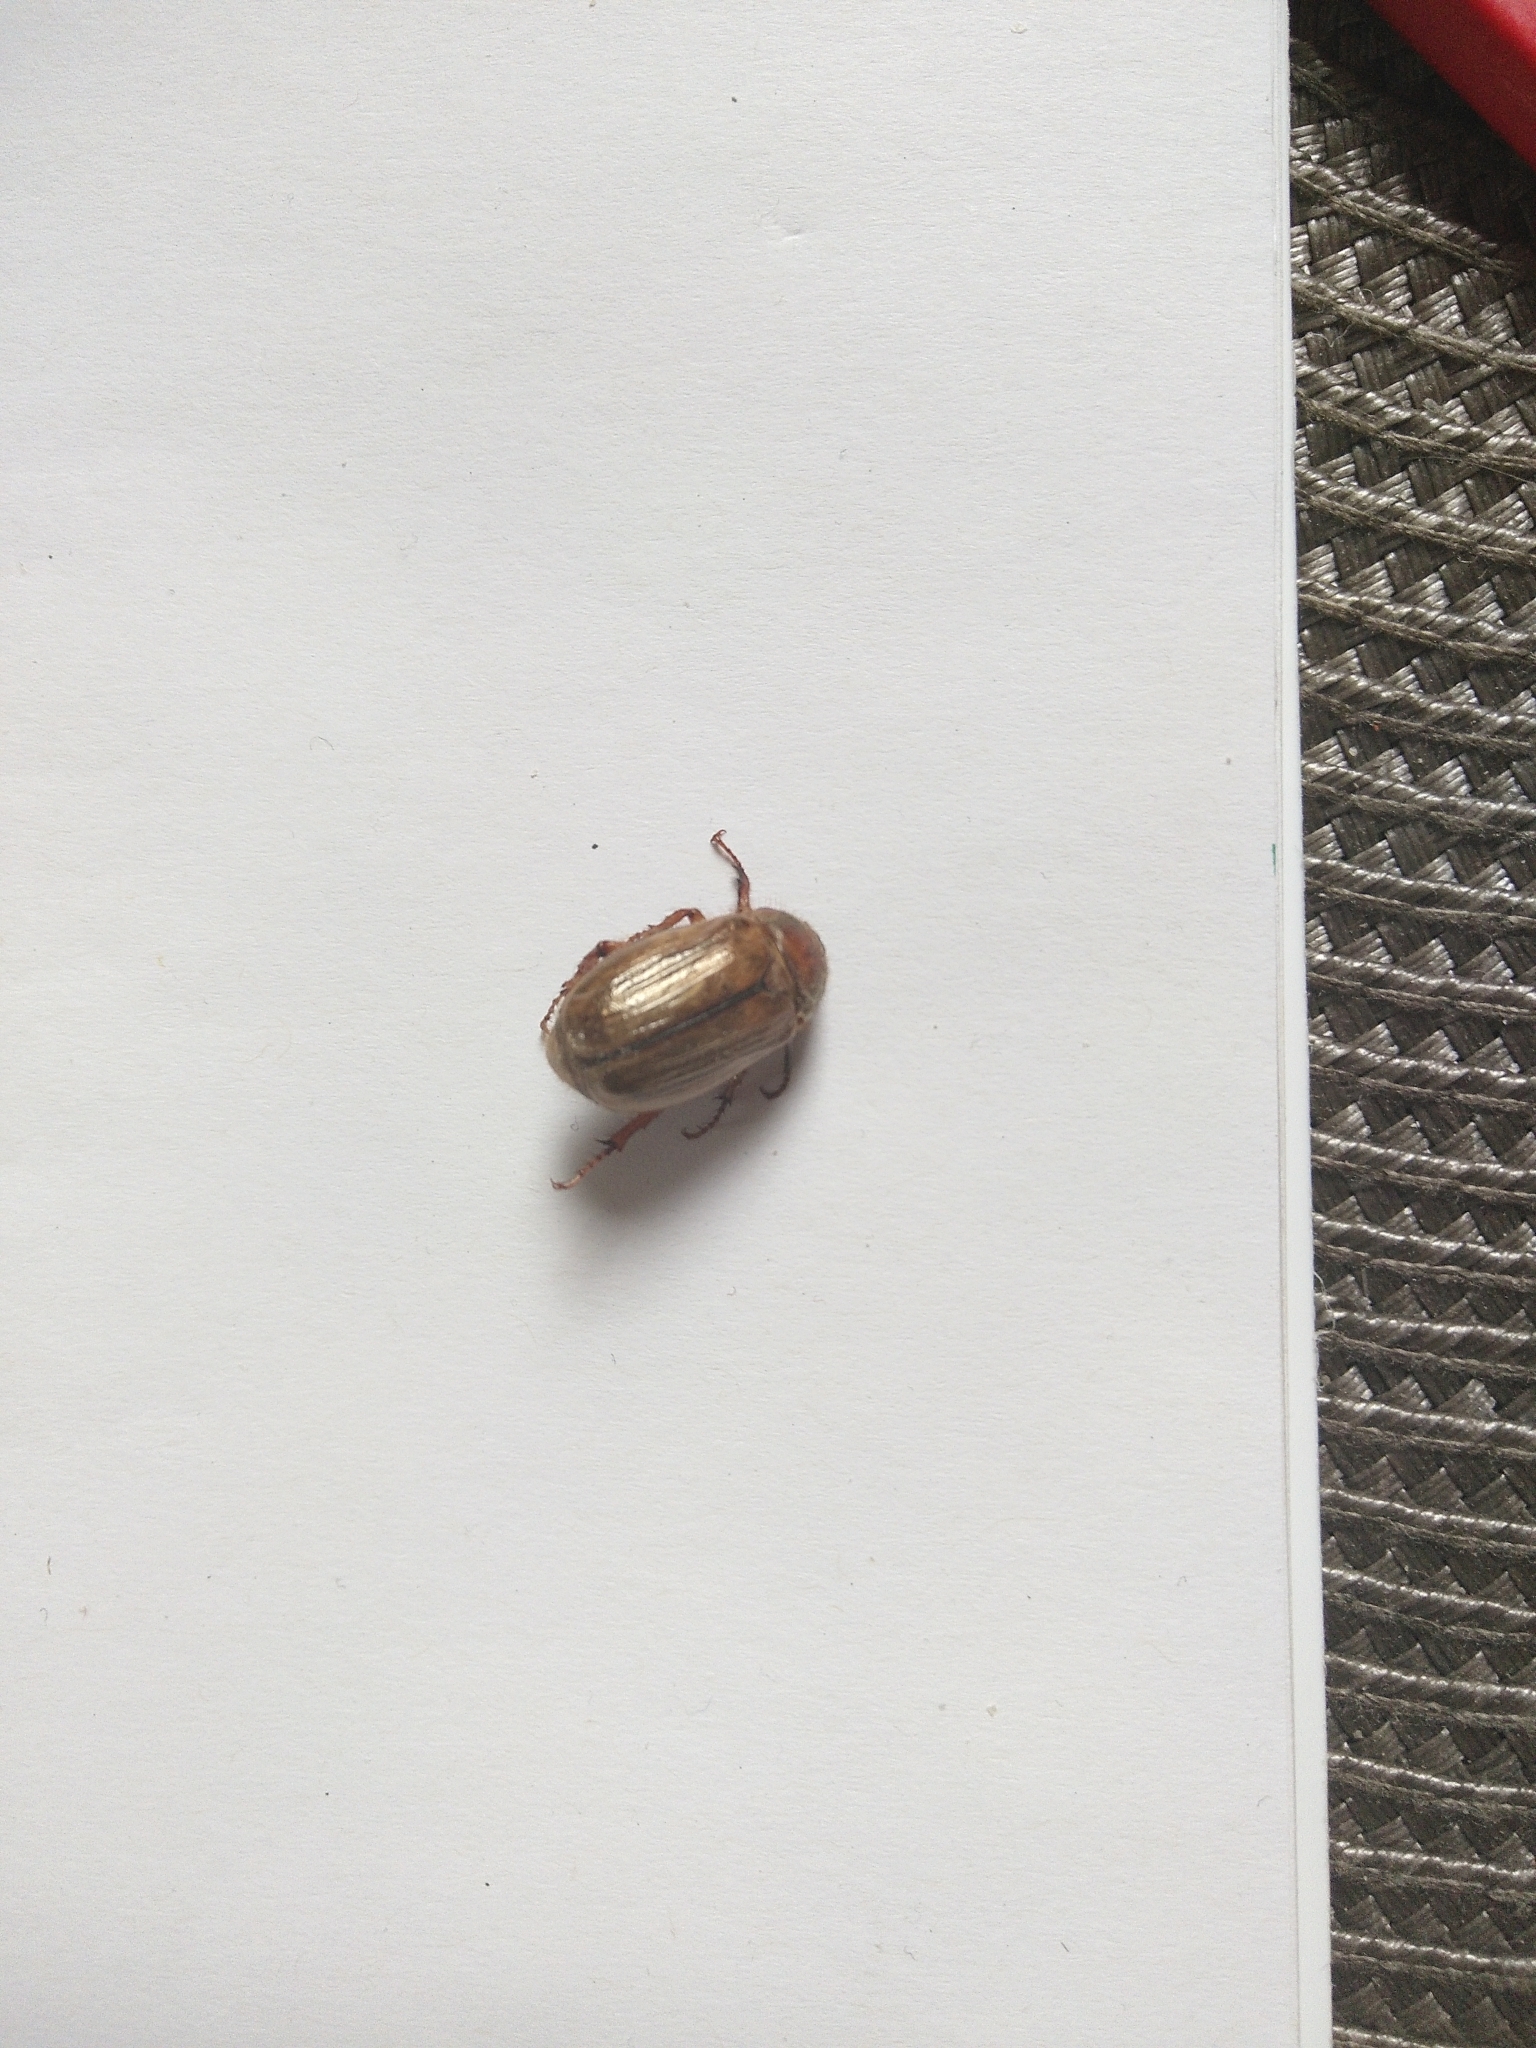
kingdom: Animalia
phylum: Arthropoda
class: Insecta
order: Coleoptera
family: Scarabaeidae
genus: Amphimallon
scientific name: Amphimallon solstitiale
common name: Summer chafer
